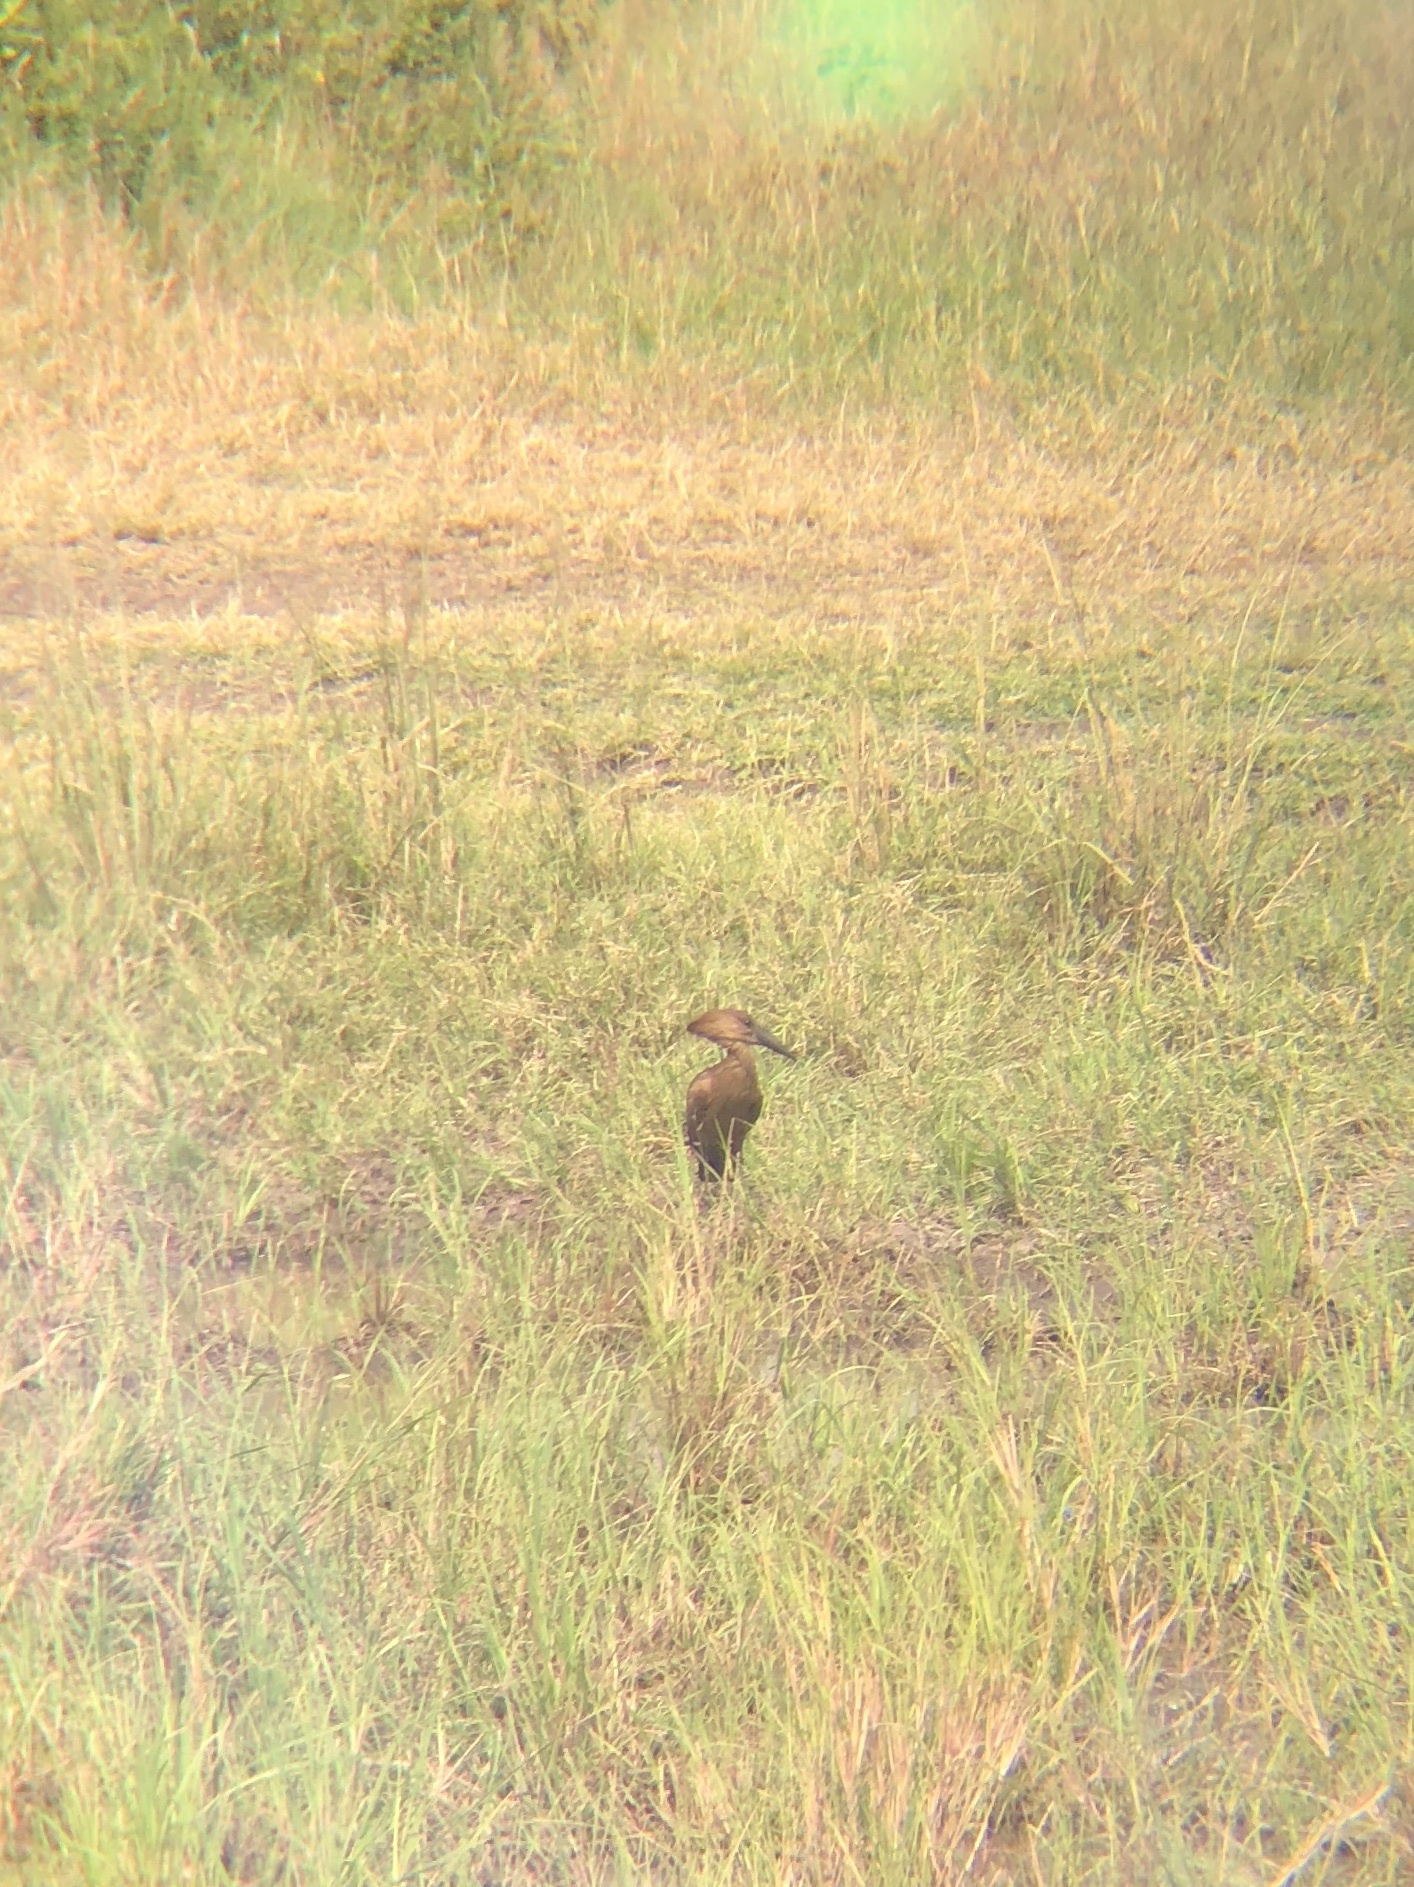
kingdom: Animalia
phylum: Chordata
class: Aves
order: Pelecaniformes
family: Scopidae
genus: Scopus
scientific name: Scopus umbretta
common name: Hamerkop
